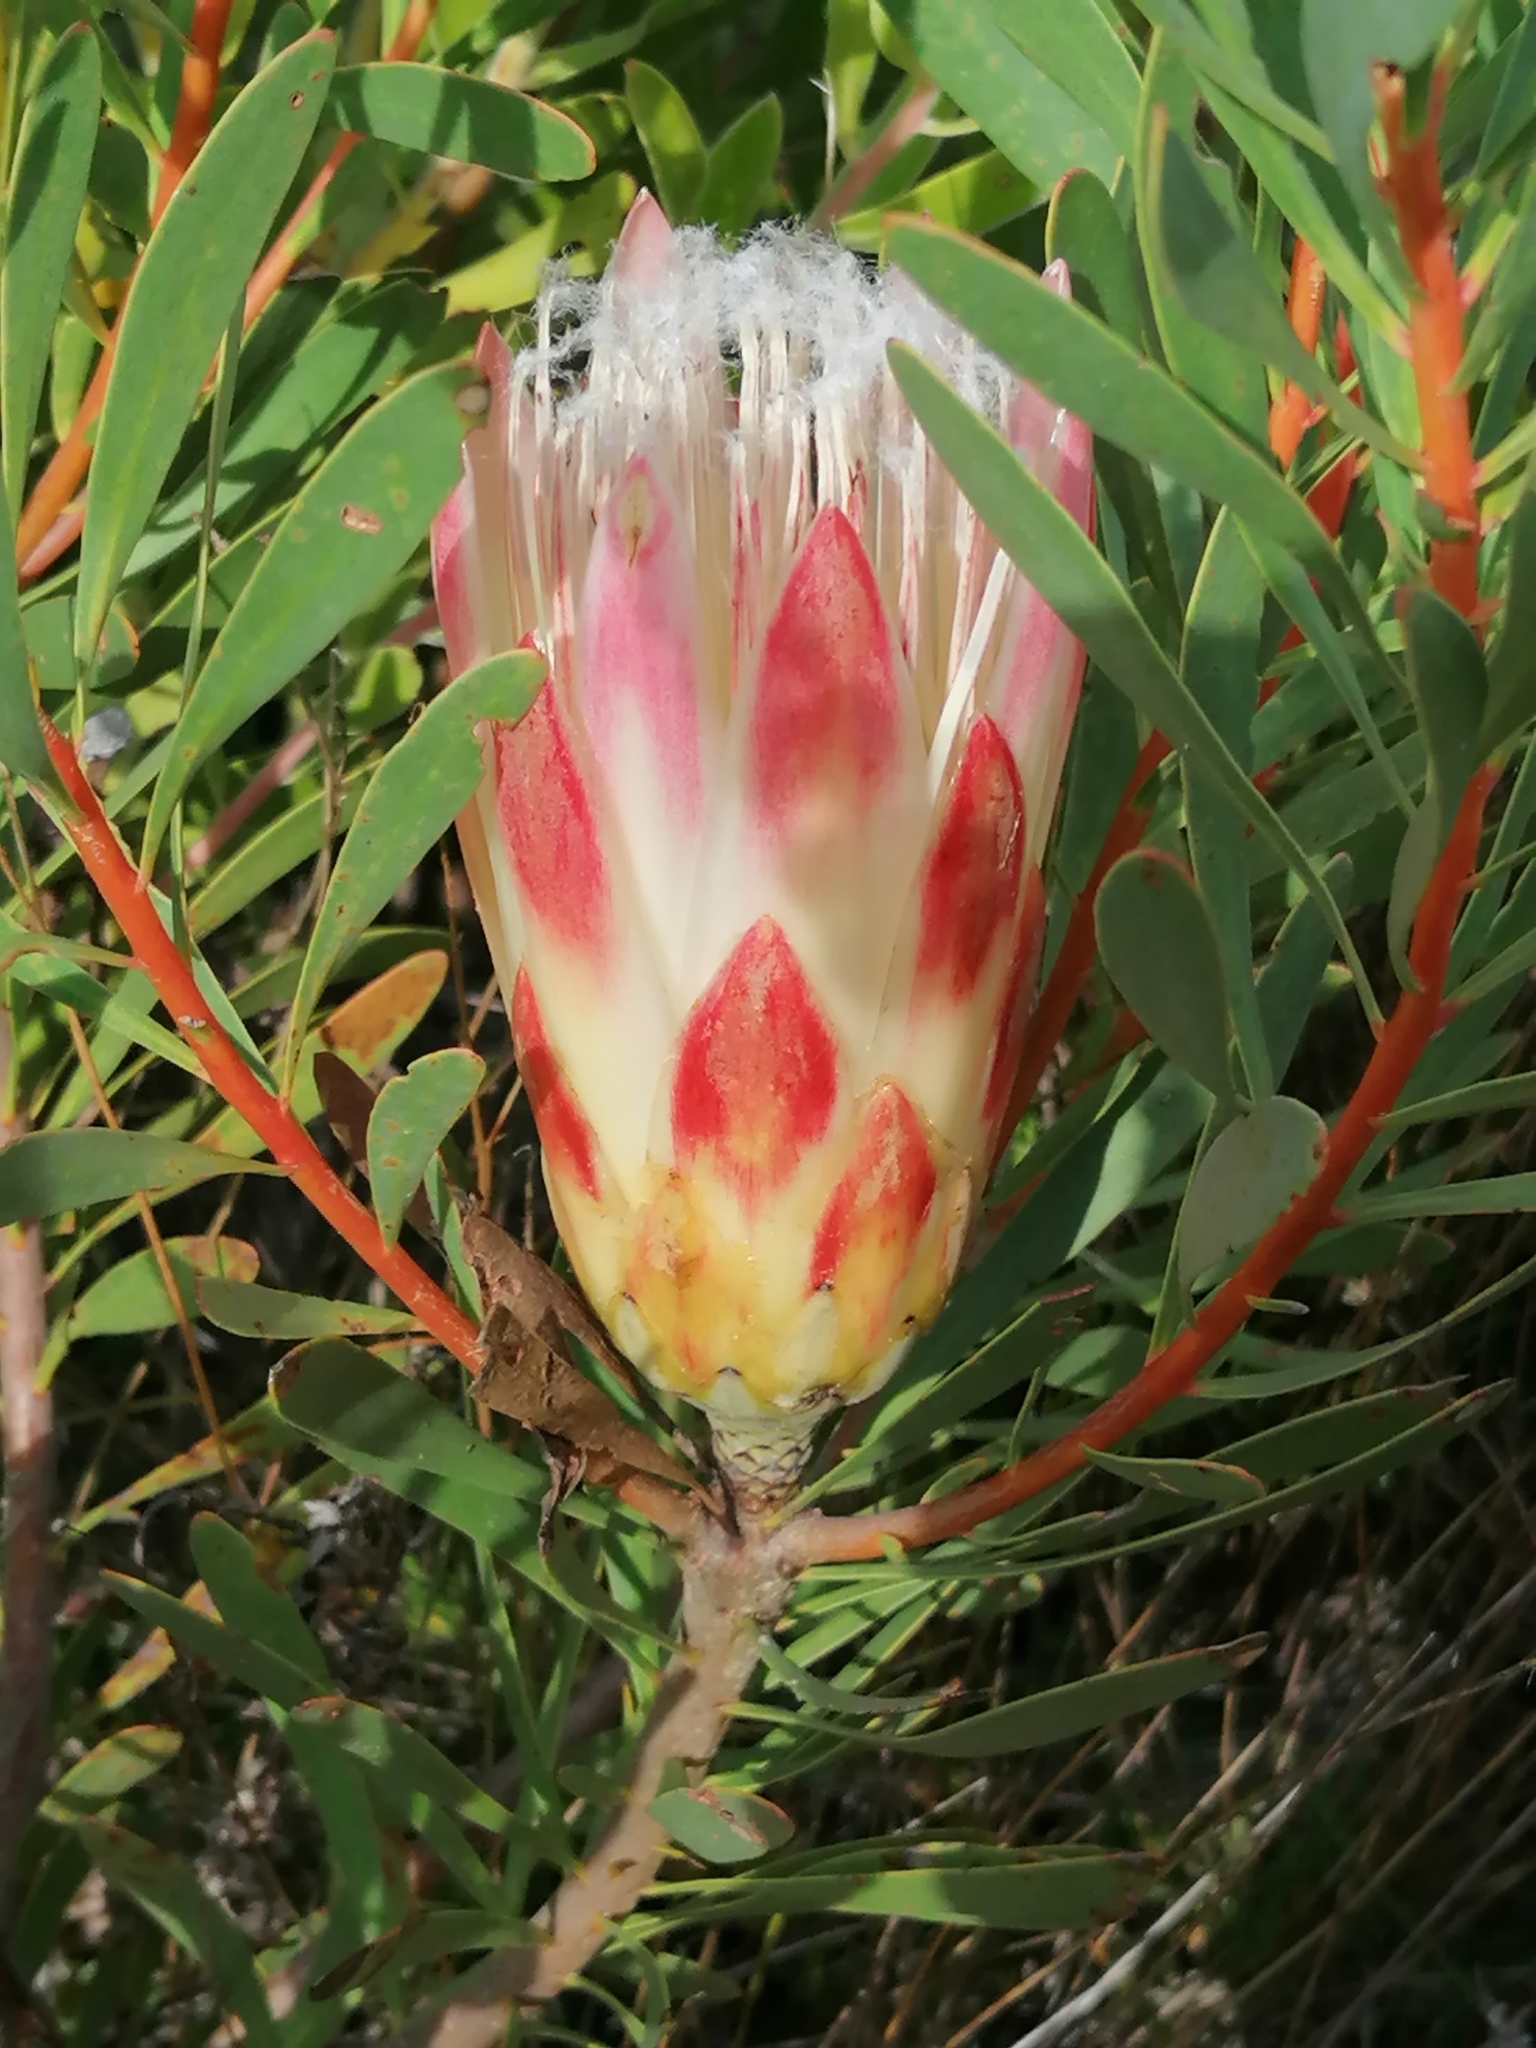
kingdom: Plantae
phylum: Tracheophyta
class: Magnoliopsida
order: Proteales
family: Proteaceae
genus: Protea
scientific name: Protea repens
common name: Sugarbush
